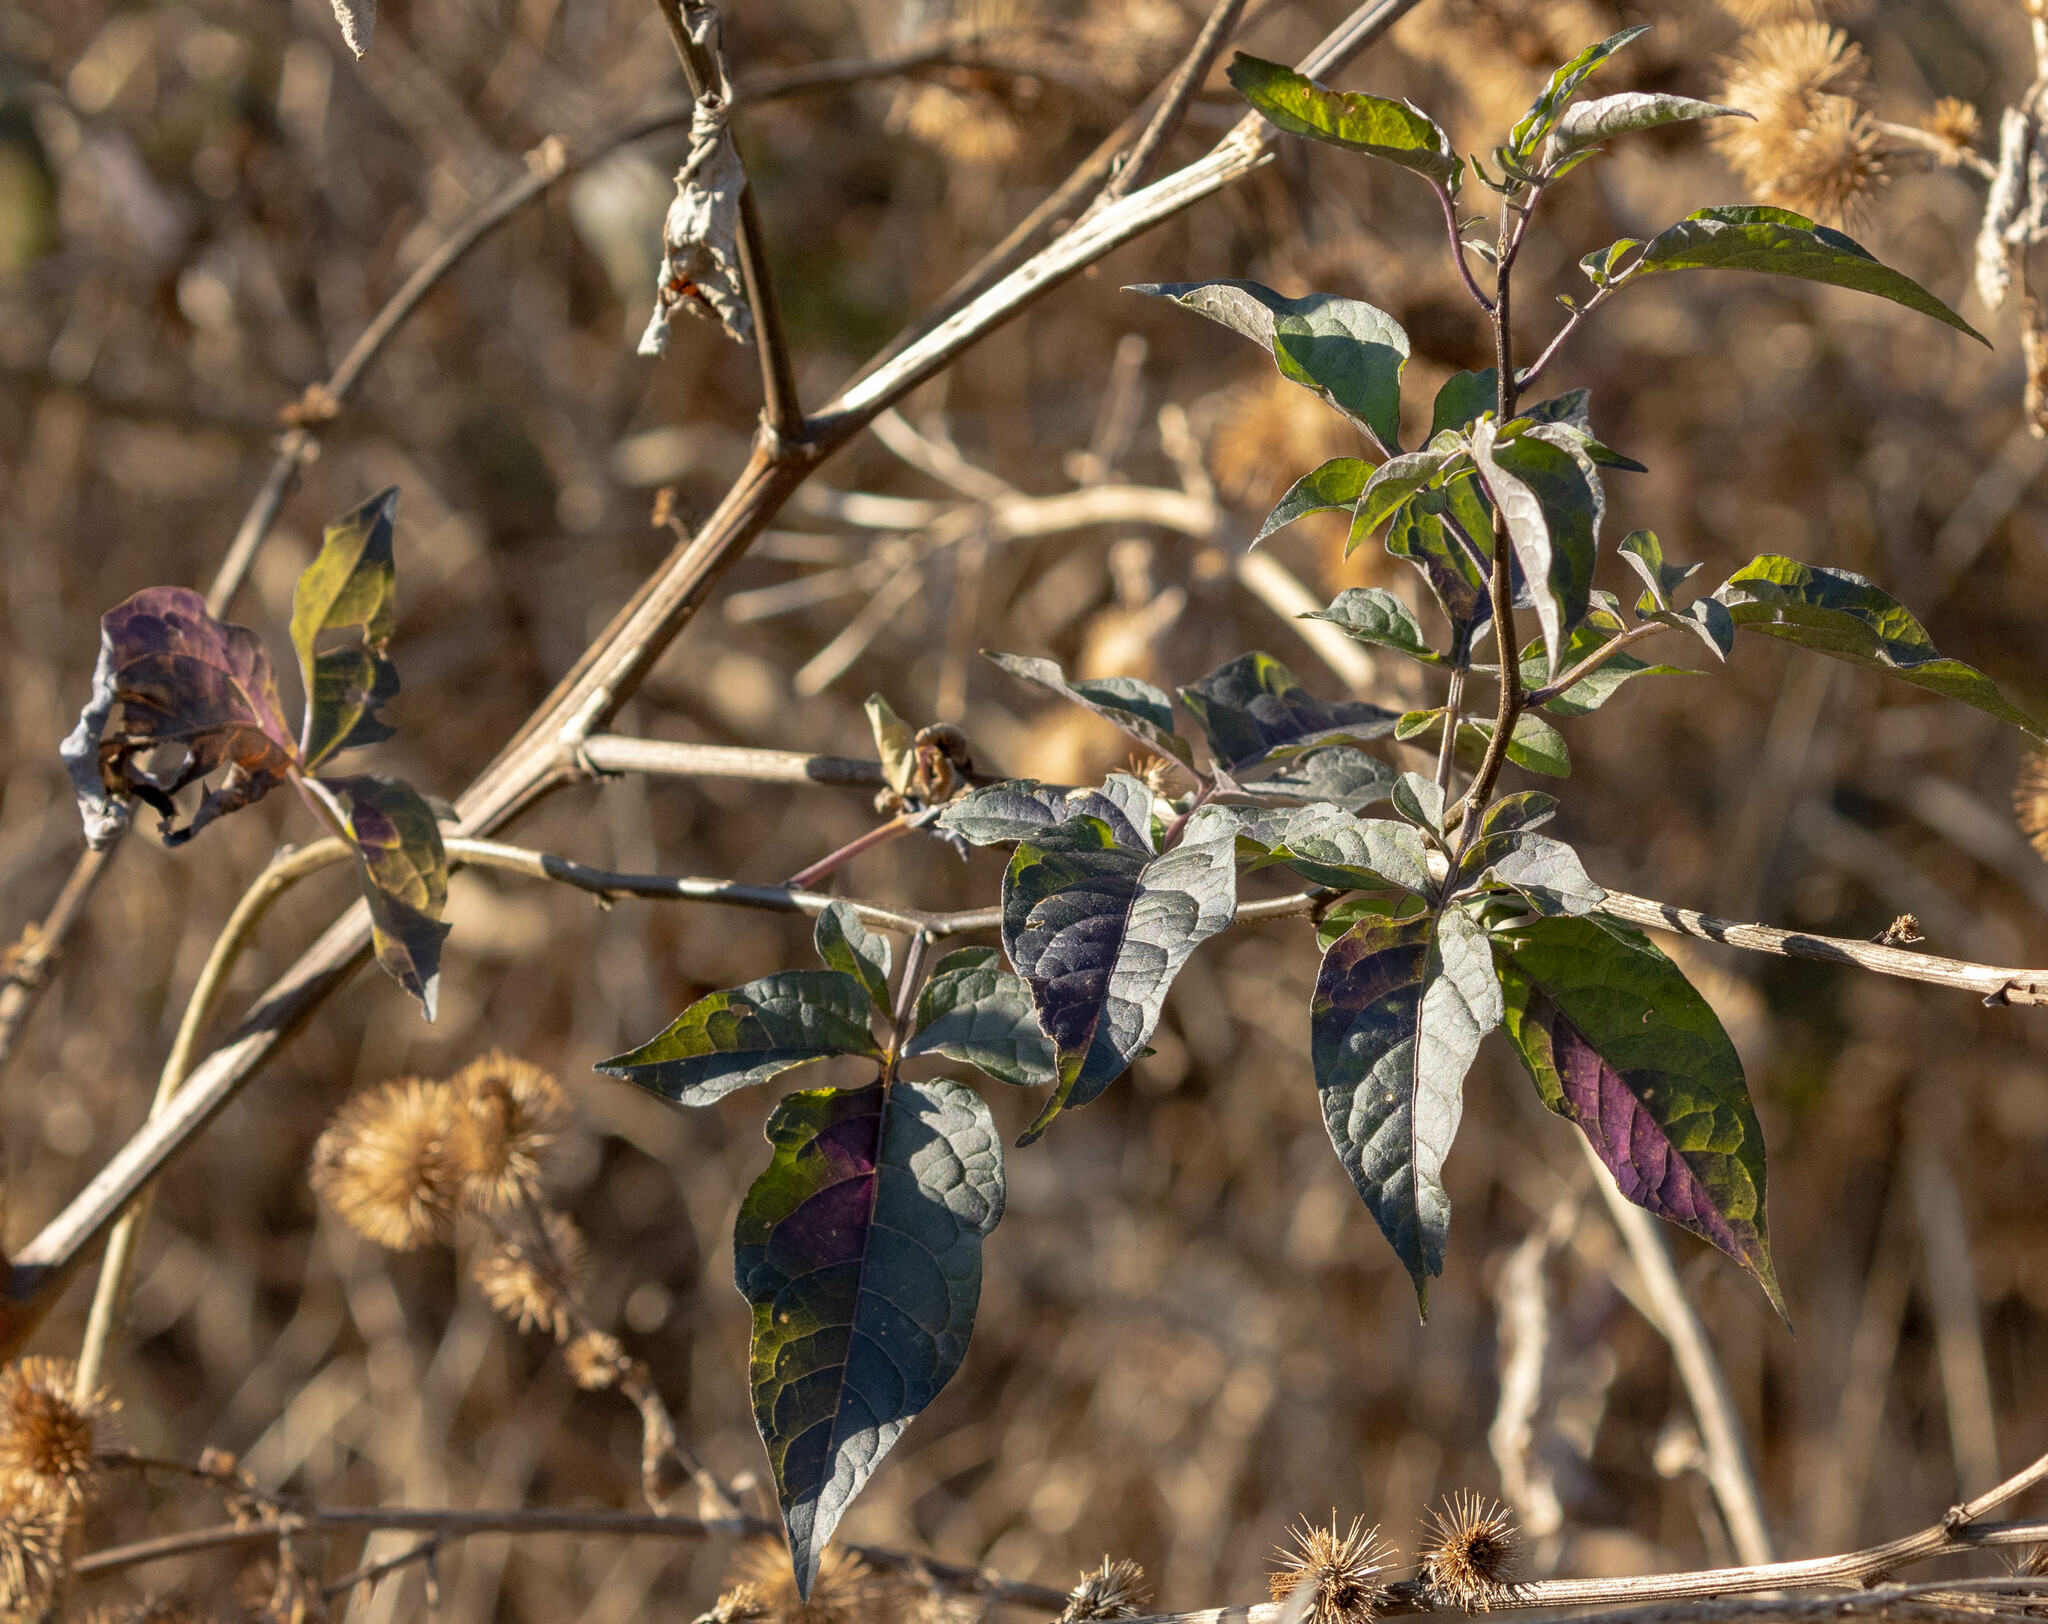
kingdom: Plantae
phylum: Tracheophyta
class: Magnoliopsida
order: Solanales
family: Solanaceae
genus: Solanum
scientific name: Solanum dulcamara
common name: Climbing nightshade
